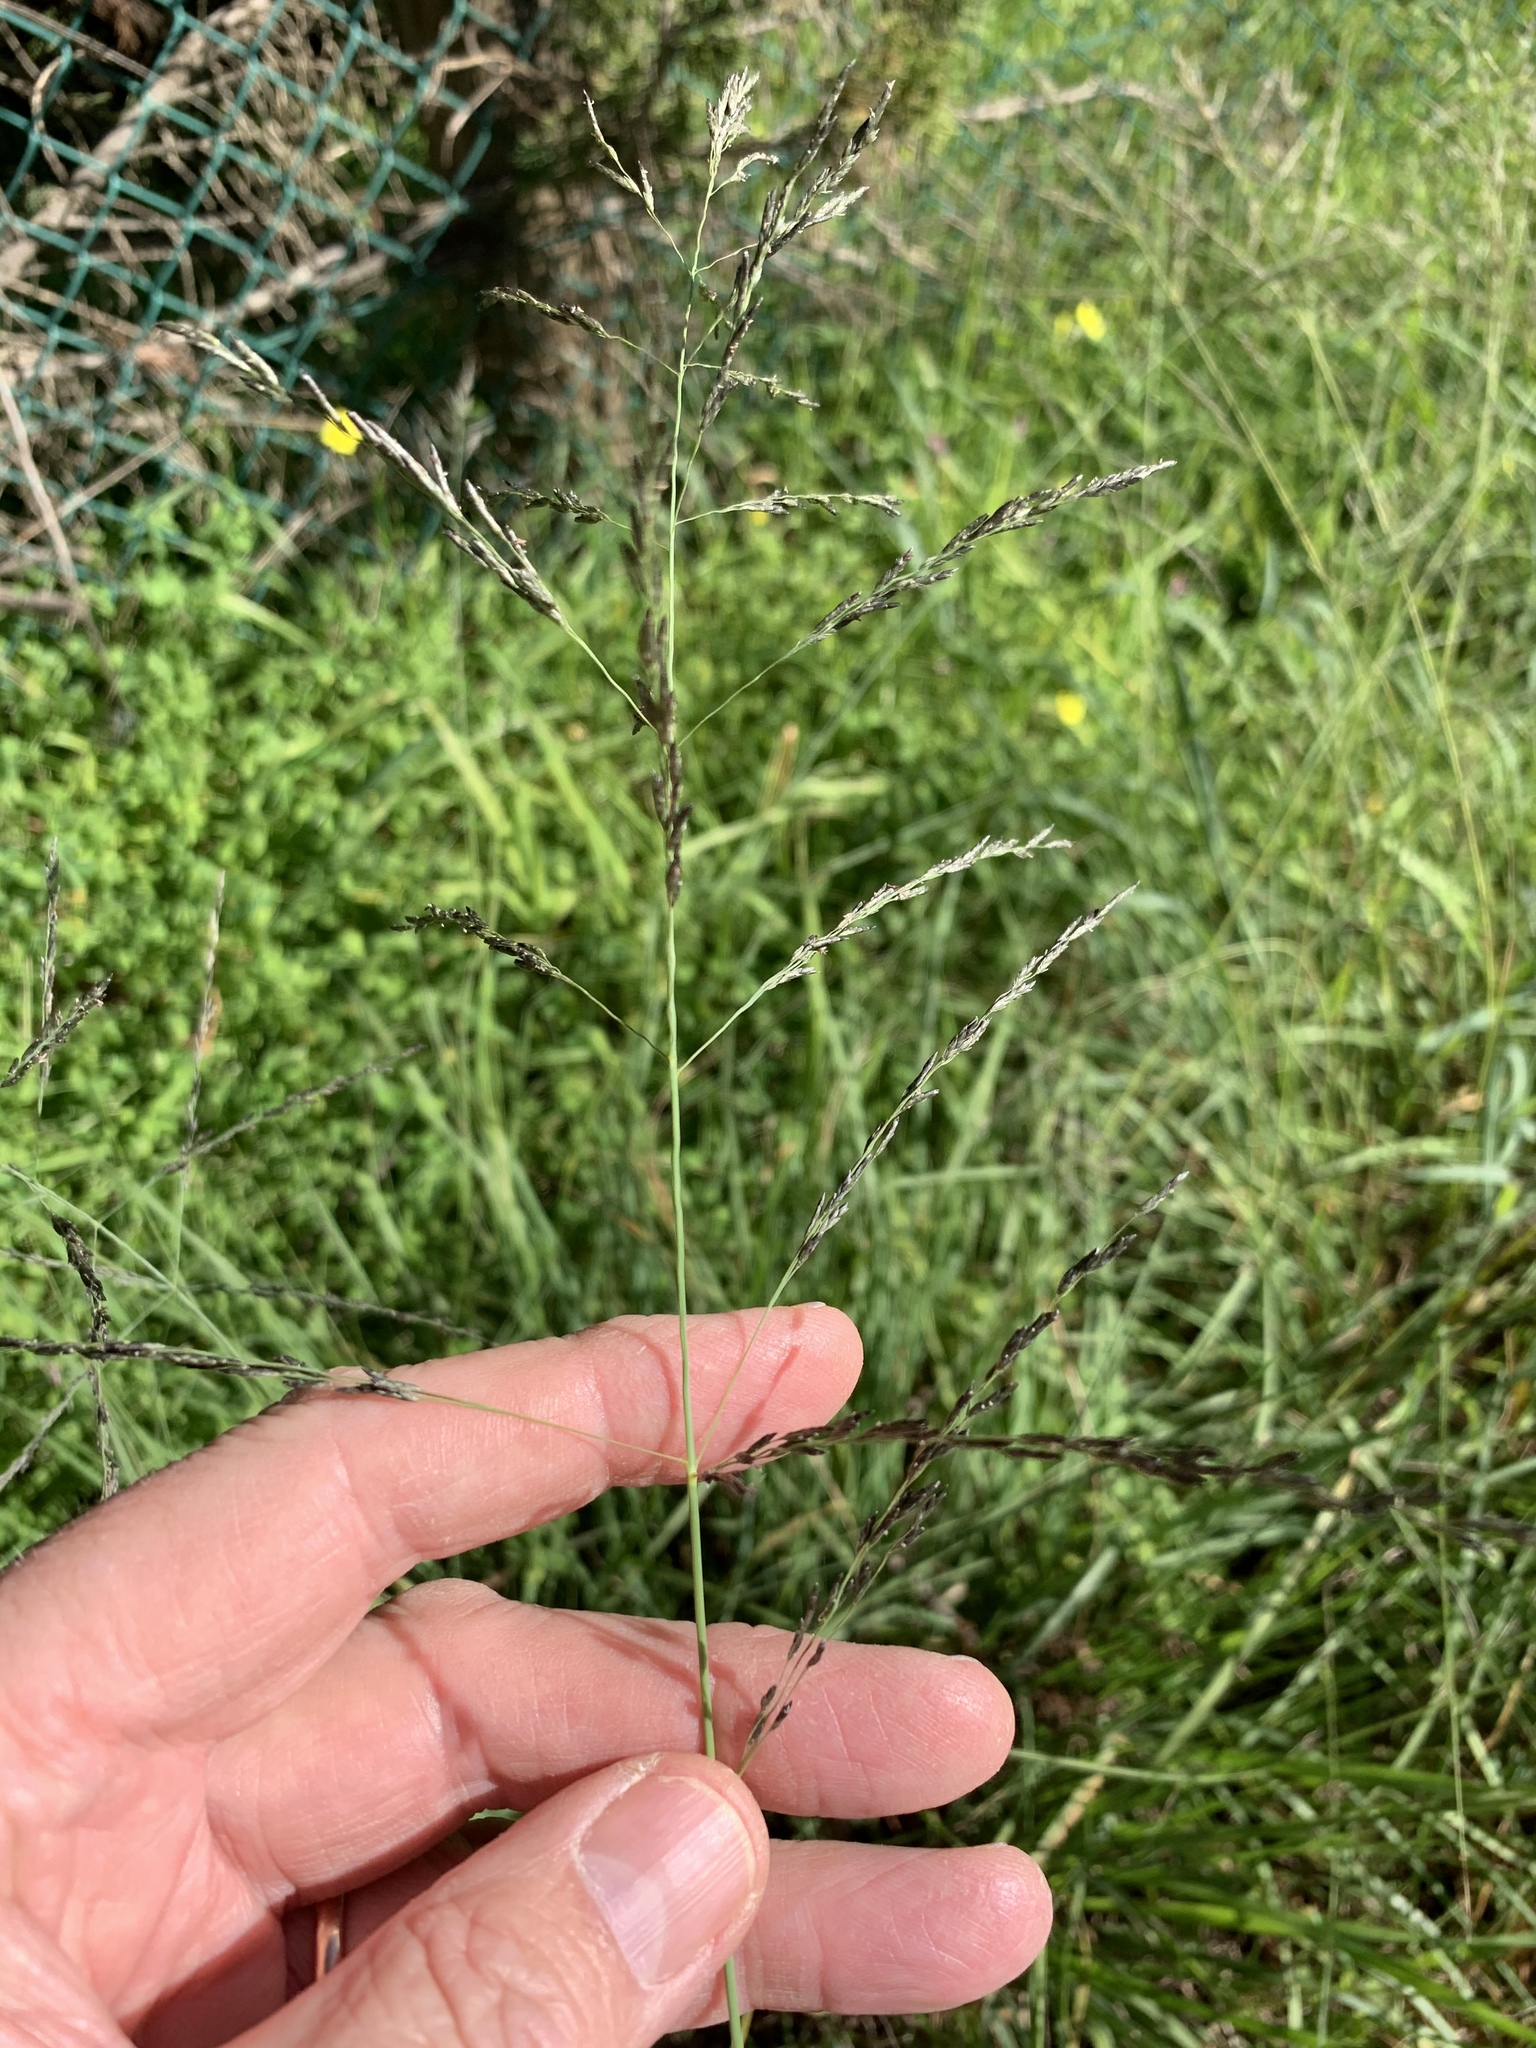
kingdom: Plantae
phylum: Tracheophyta
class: Liliopsida
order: Poales
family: Poaceae
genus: Eragrostis
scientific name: Eragrostis curvula
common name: African love-grass
